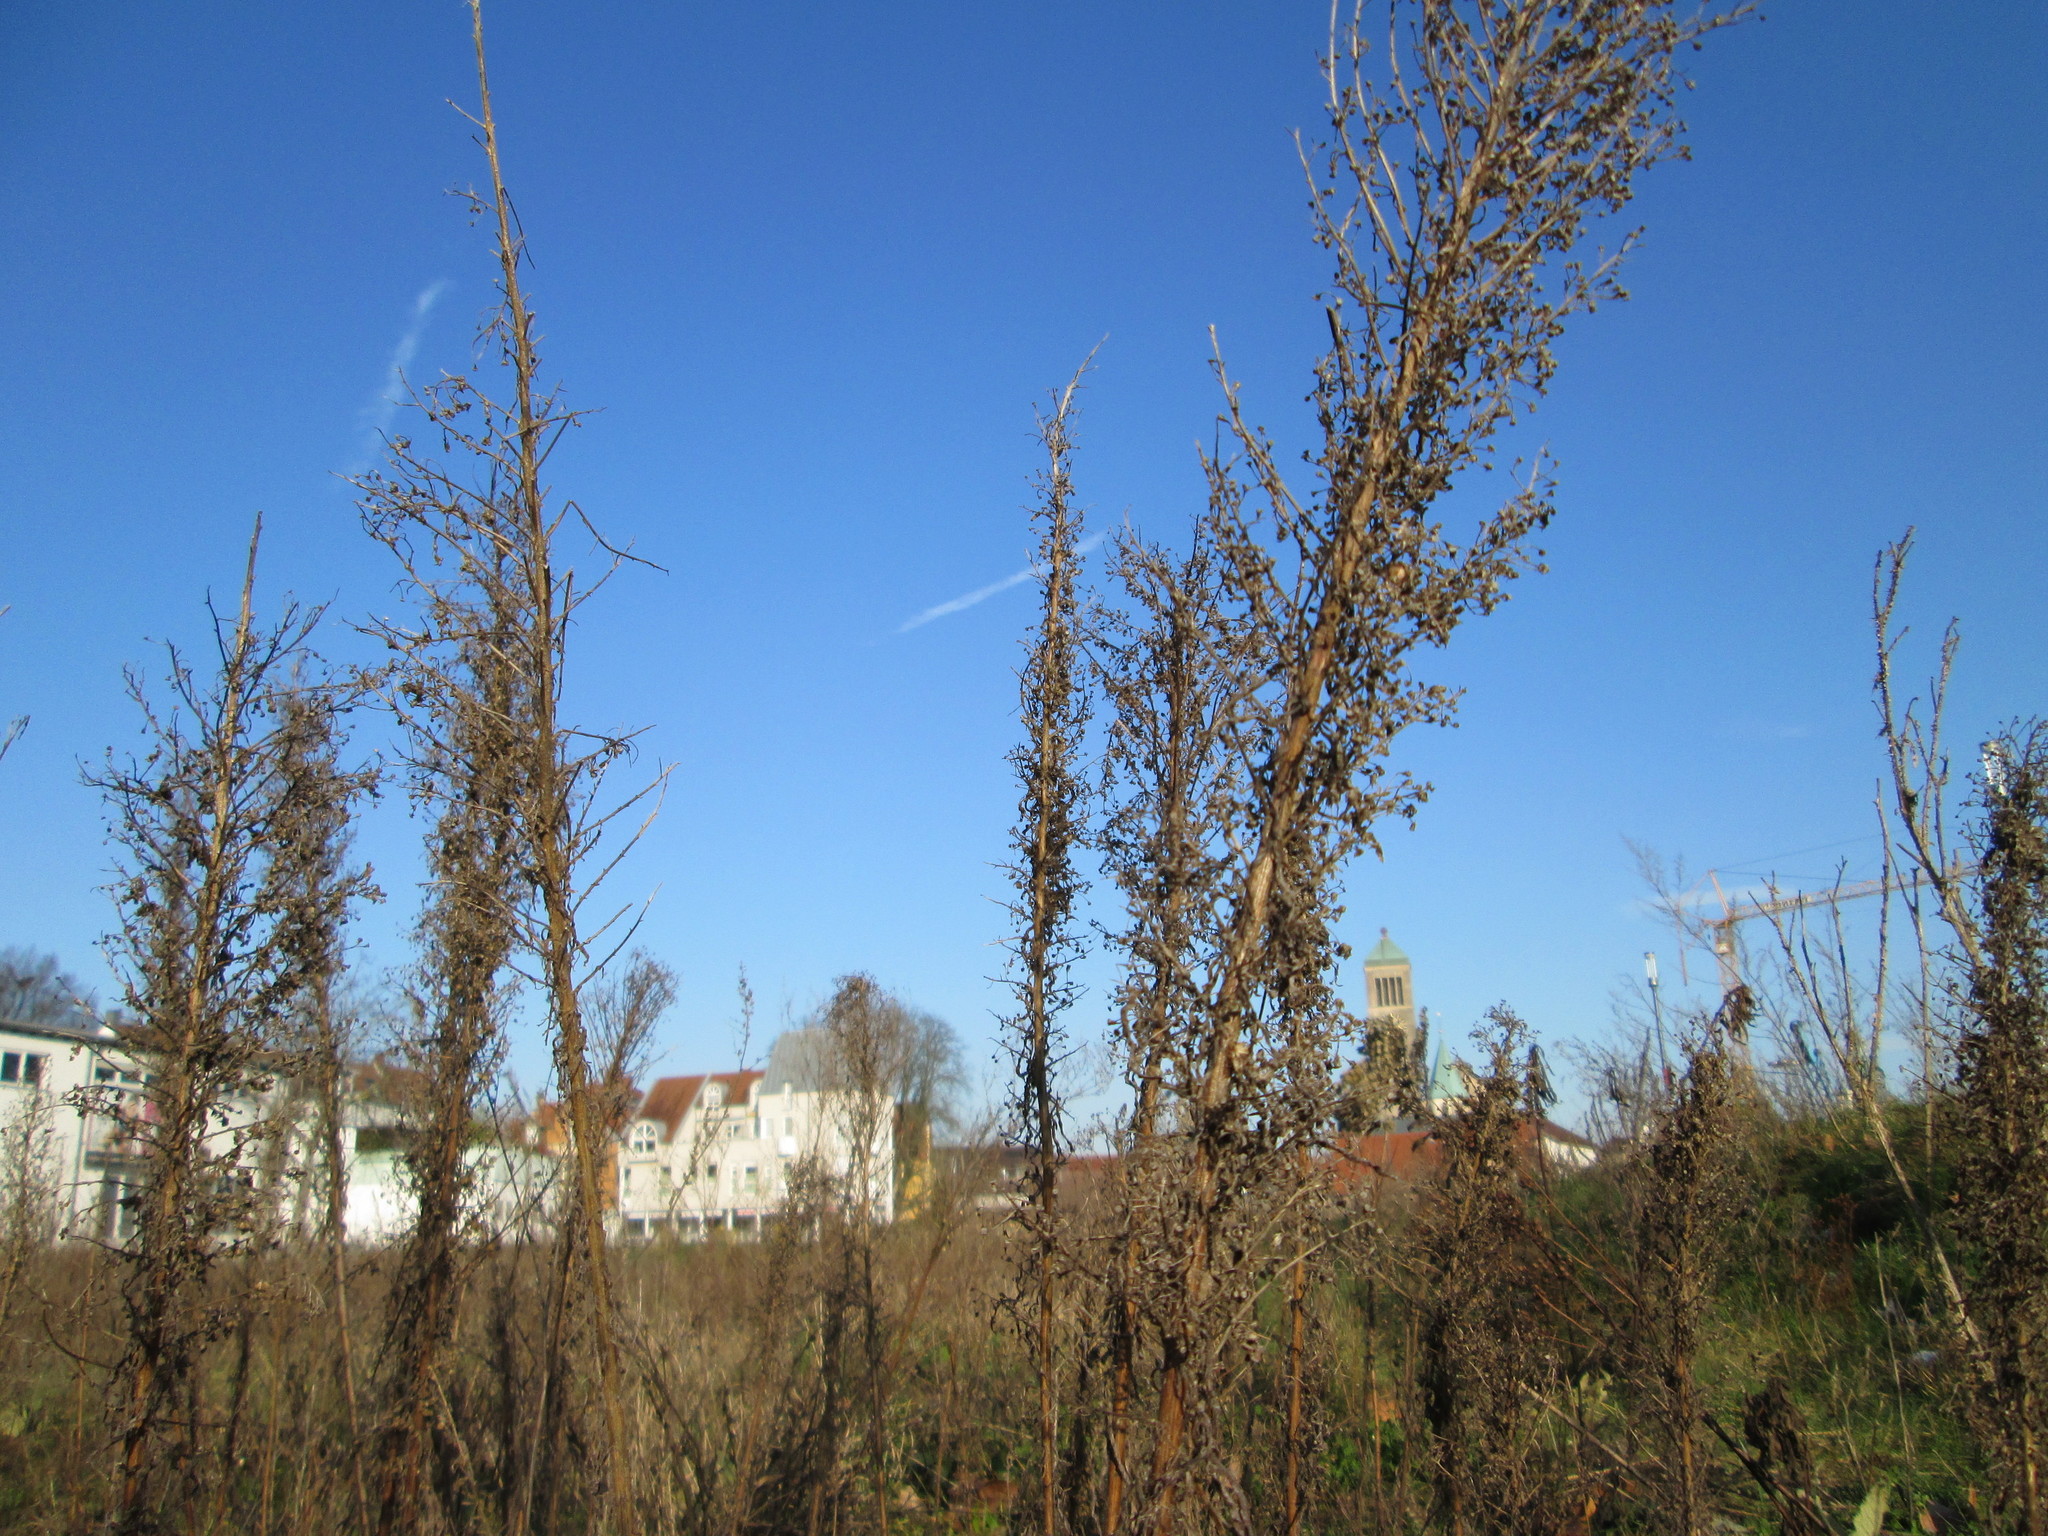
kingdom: Plantae
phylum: Tracheophyta
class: Magnoliopsida
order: Asterales
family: Asteraceae
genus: Erigeron
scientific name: Erigeron canadensis
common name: Canadian fleabane
